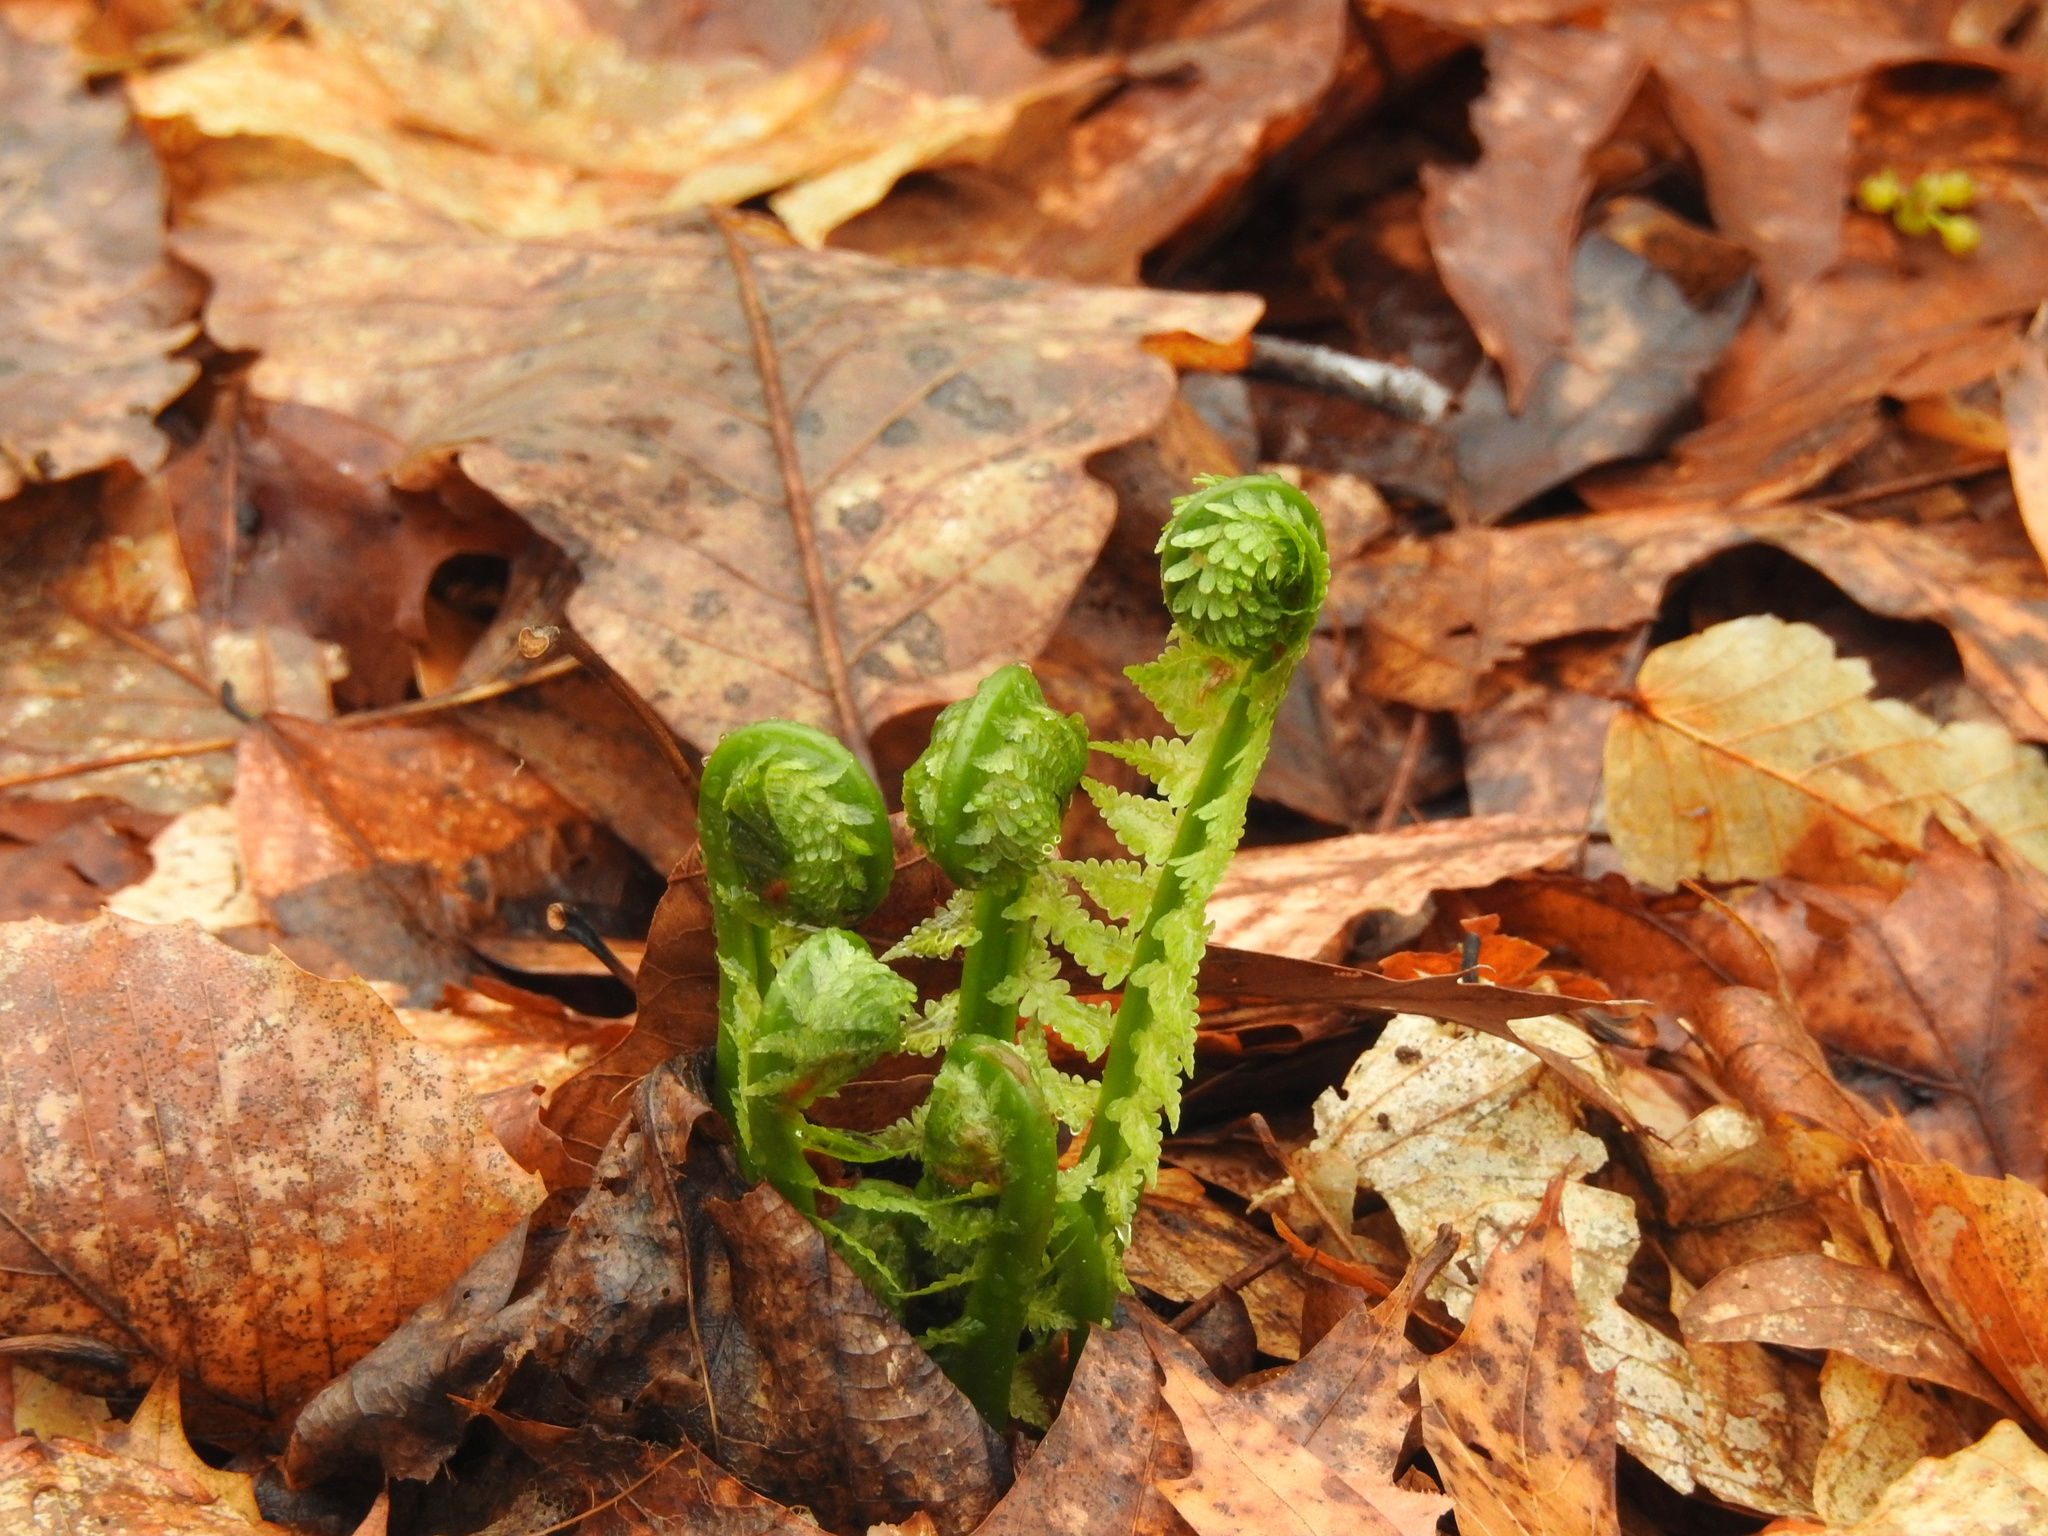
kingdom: Plantae
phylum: Tracheophyta
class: Polypodiopsida
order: Polypodiales
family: Onocleaceae
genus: Matteuccia
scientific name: Matteuccia struthiopteris
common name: Ostrich fern
